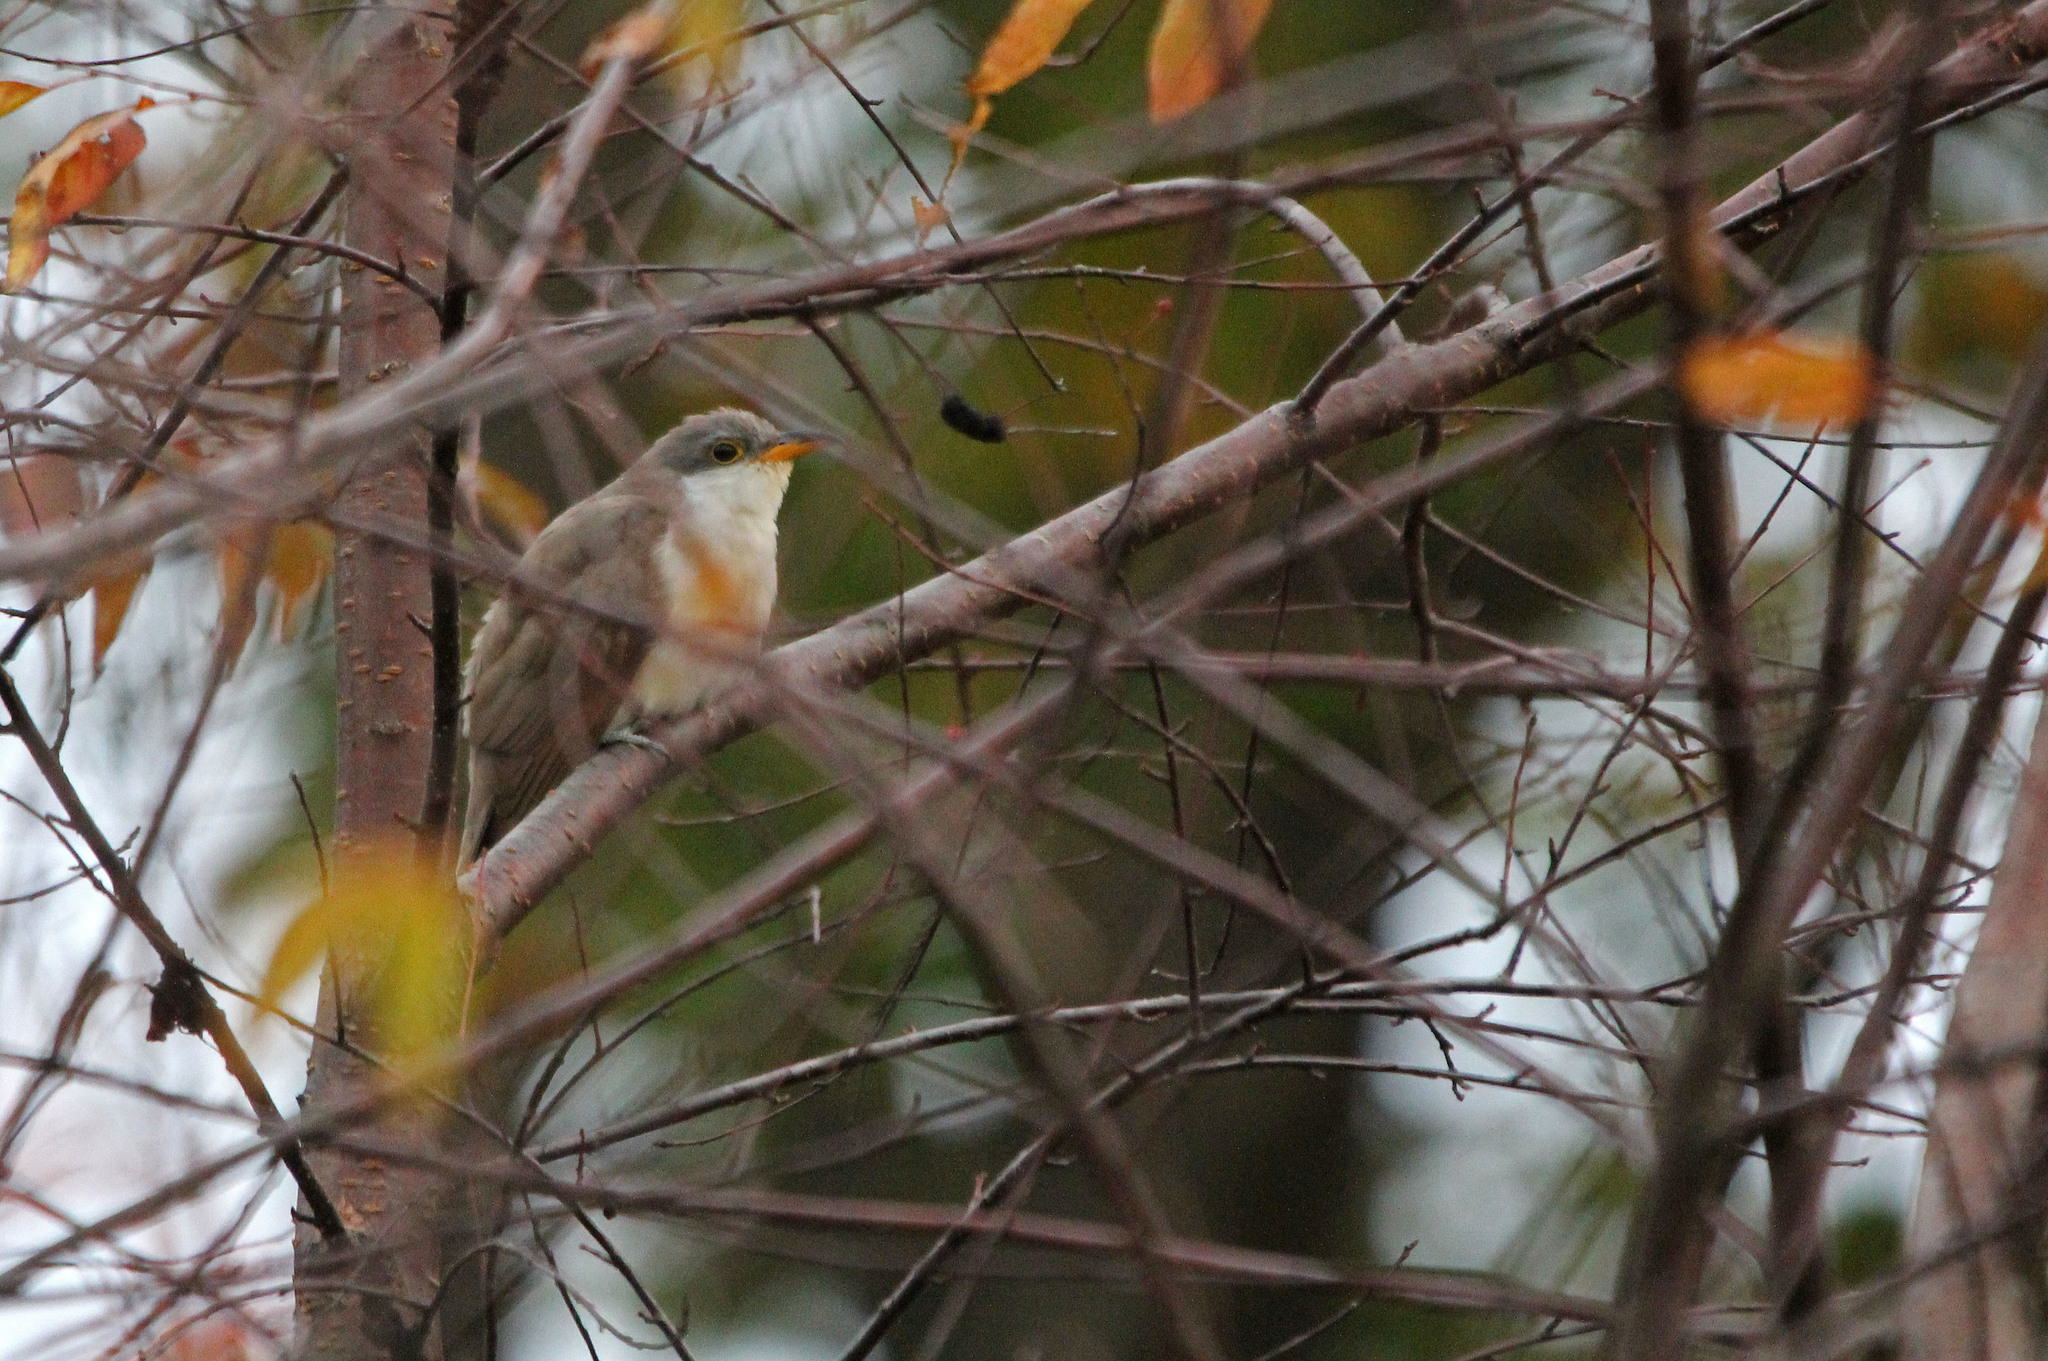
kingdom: Animalia
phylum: Chordata
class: Aves
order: Cuculiformes
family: Cuculidae
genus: Coccyzus
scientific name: Coccyzus americanus
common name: Yellow-billed cuckoo
